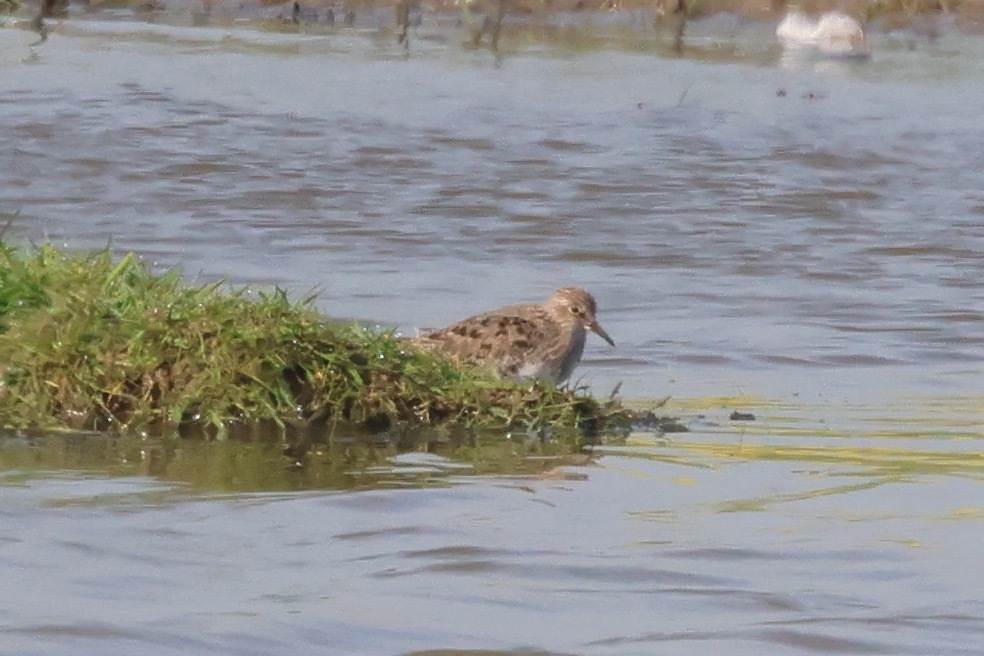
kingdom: Animalia
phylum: Chordata
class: Aves
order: Charadriiformes
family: Scolopacidae
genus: Calidris
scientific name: Calidris temminckii
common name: Temminck's stint
